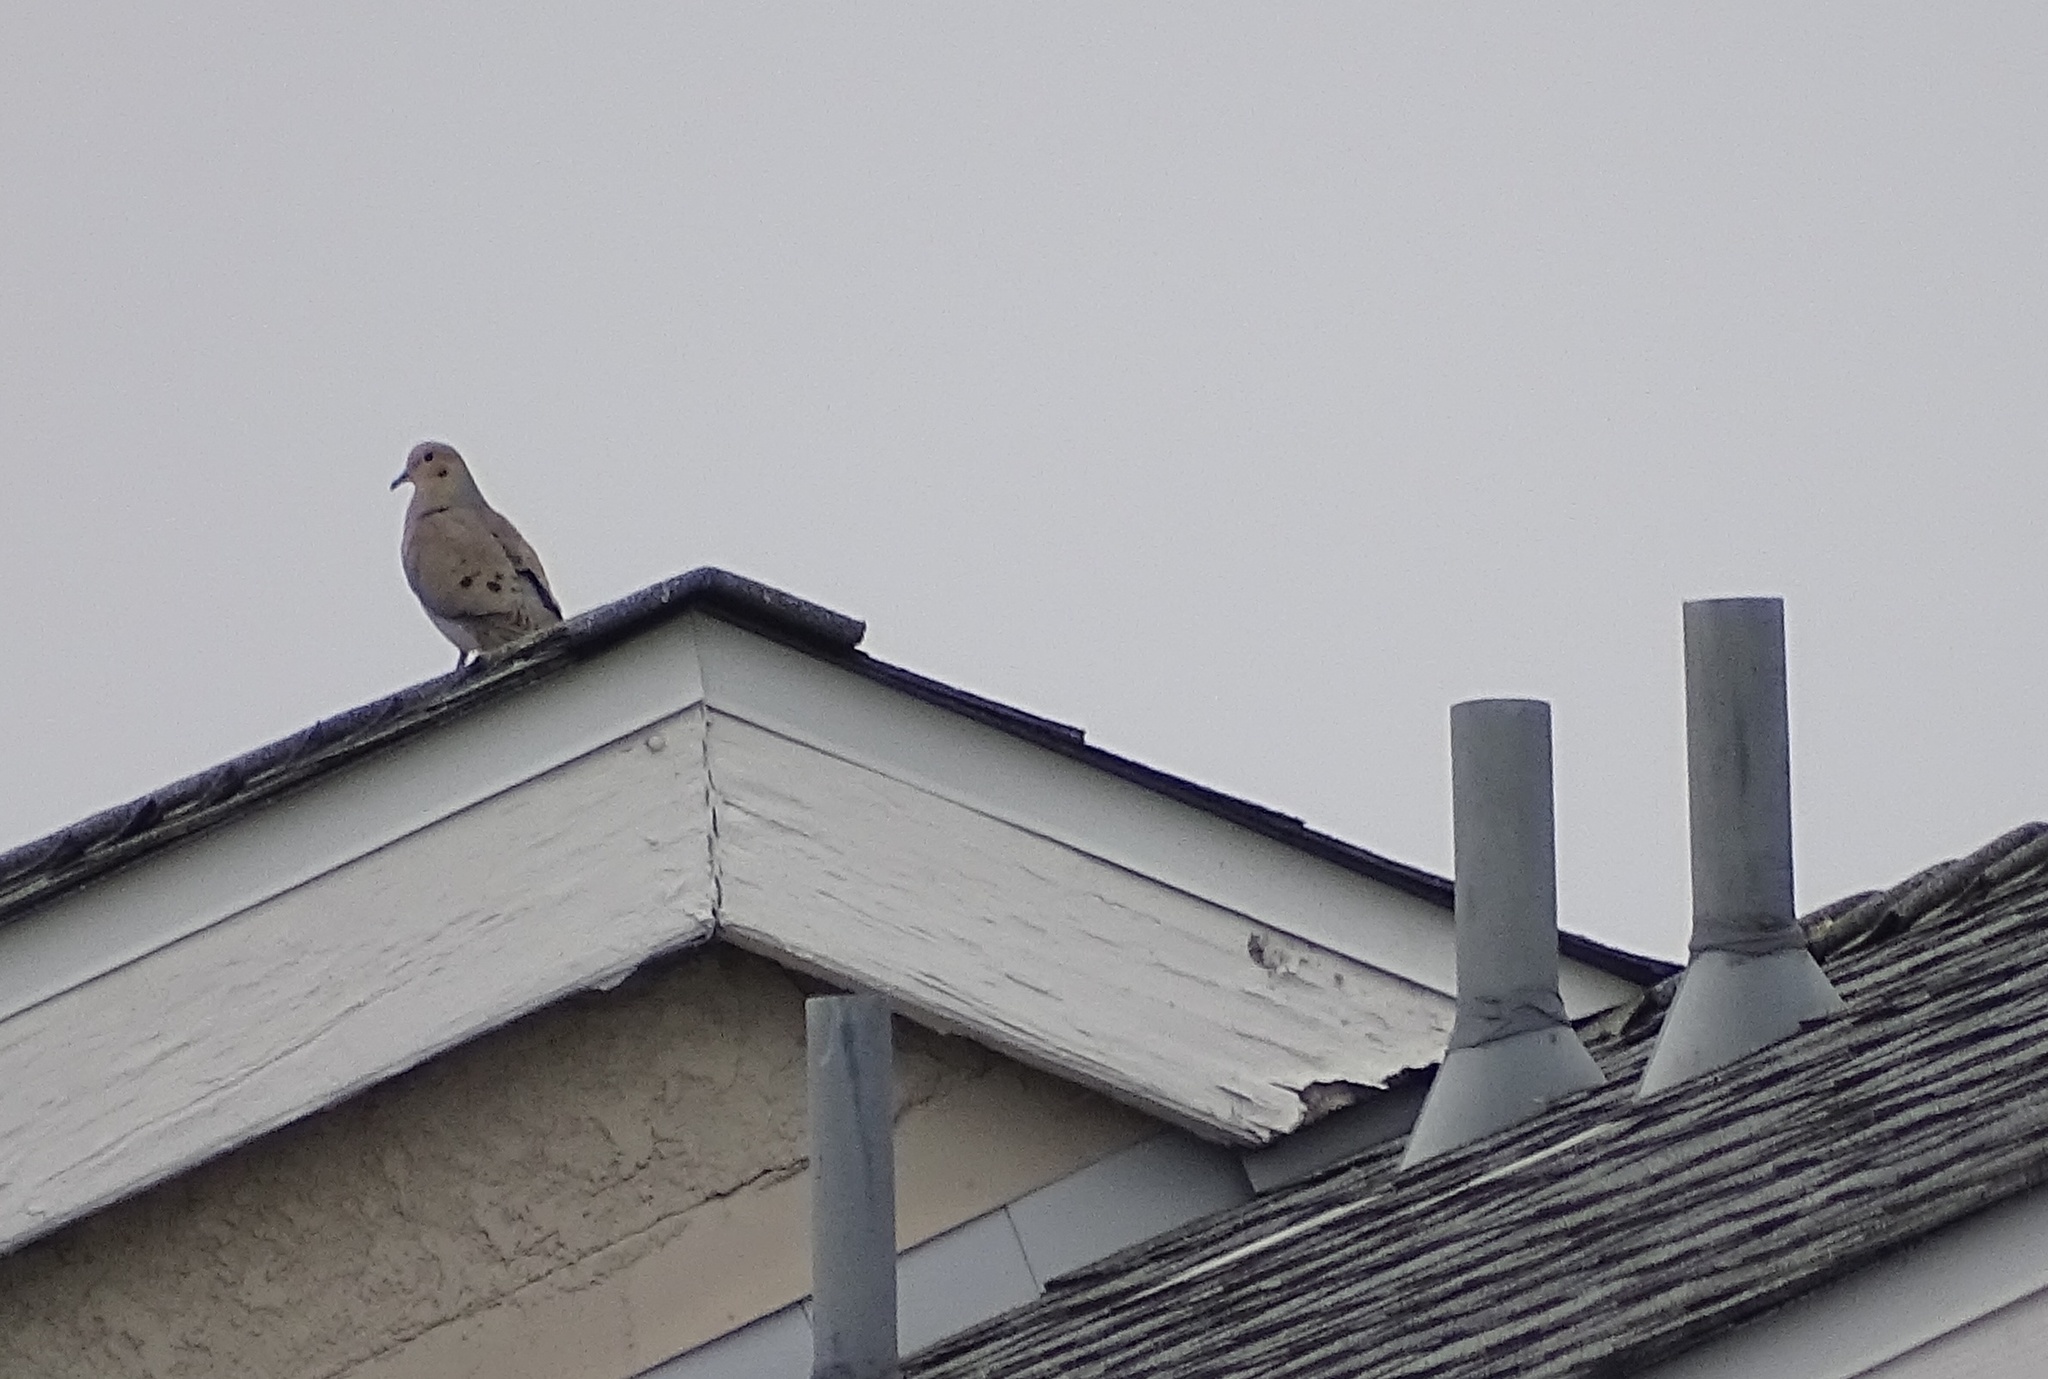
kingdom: Animalia
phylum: Chordata
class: Aves
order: Columbiformes
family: Columbidae
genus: Zenaida
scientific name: Zenaida macroura
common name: Mourning dove
